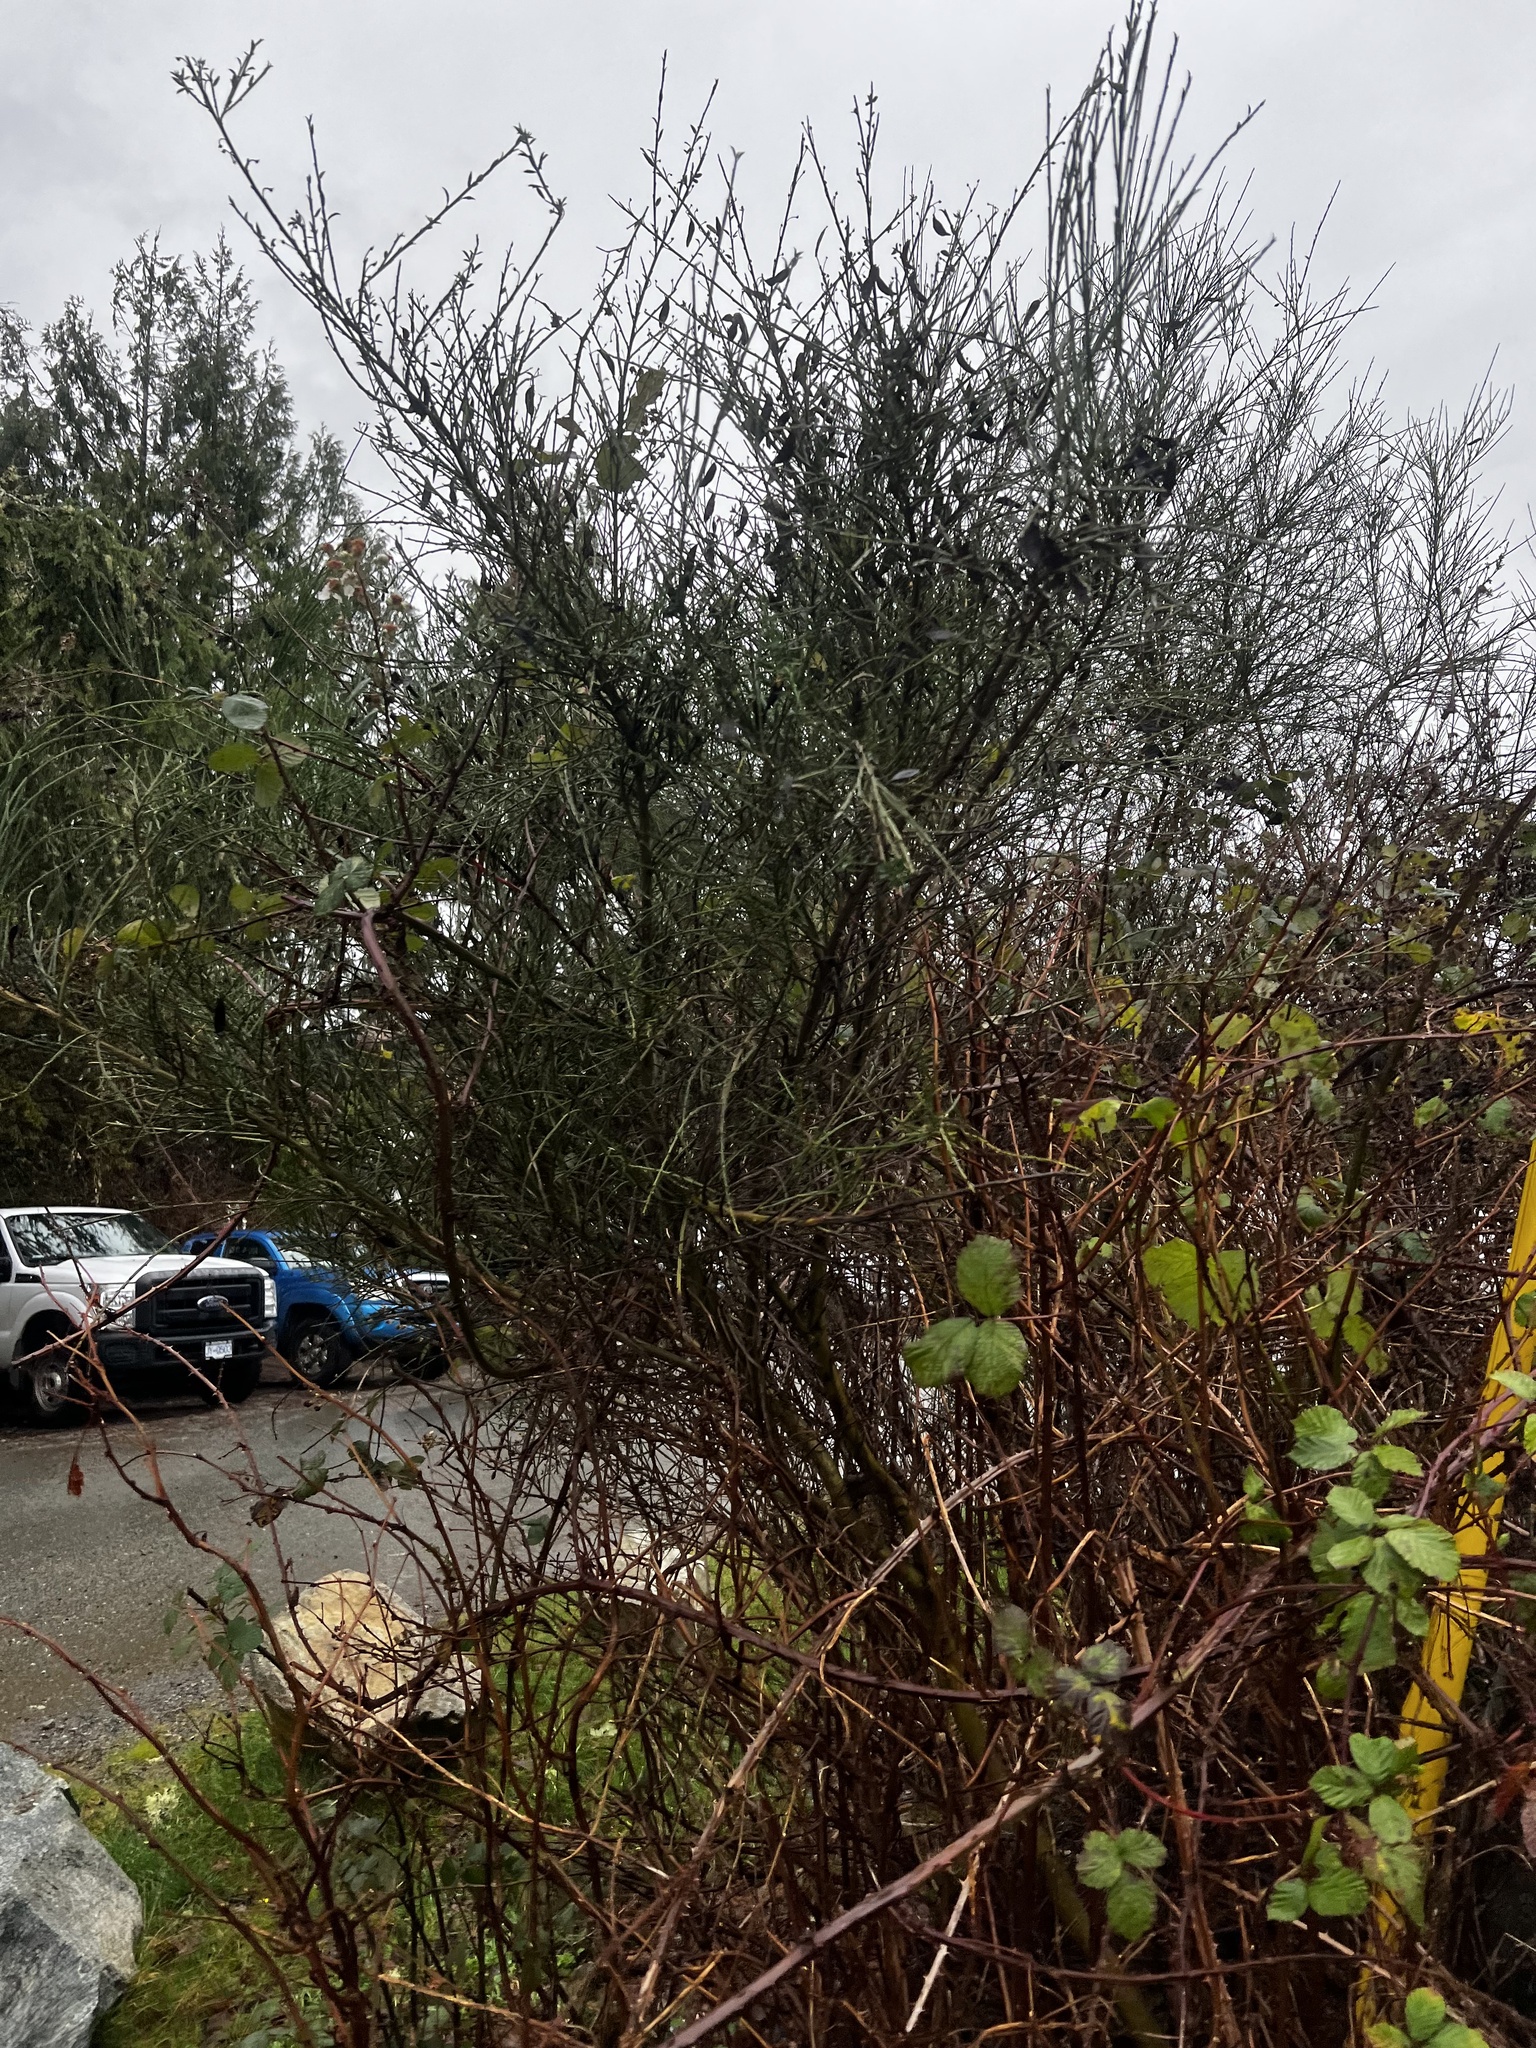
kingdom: Plantae
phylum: Tracheophyta
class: Magnoliopsida
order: Fabales
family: Fabaceae
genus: Cytisus
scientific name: Cytisus scoparius
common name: Scotch broom
